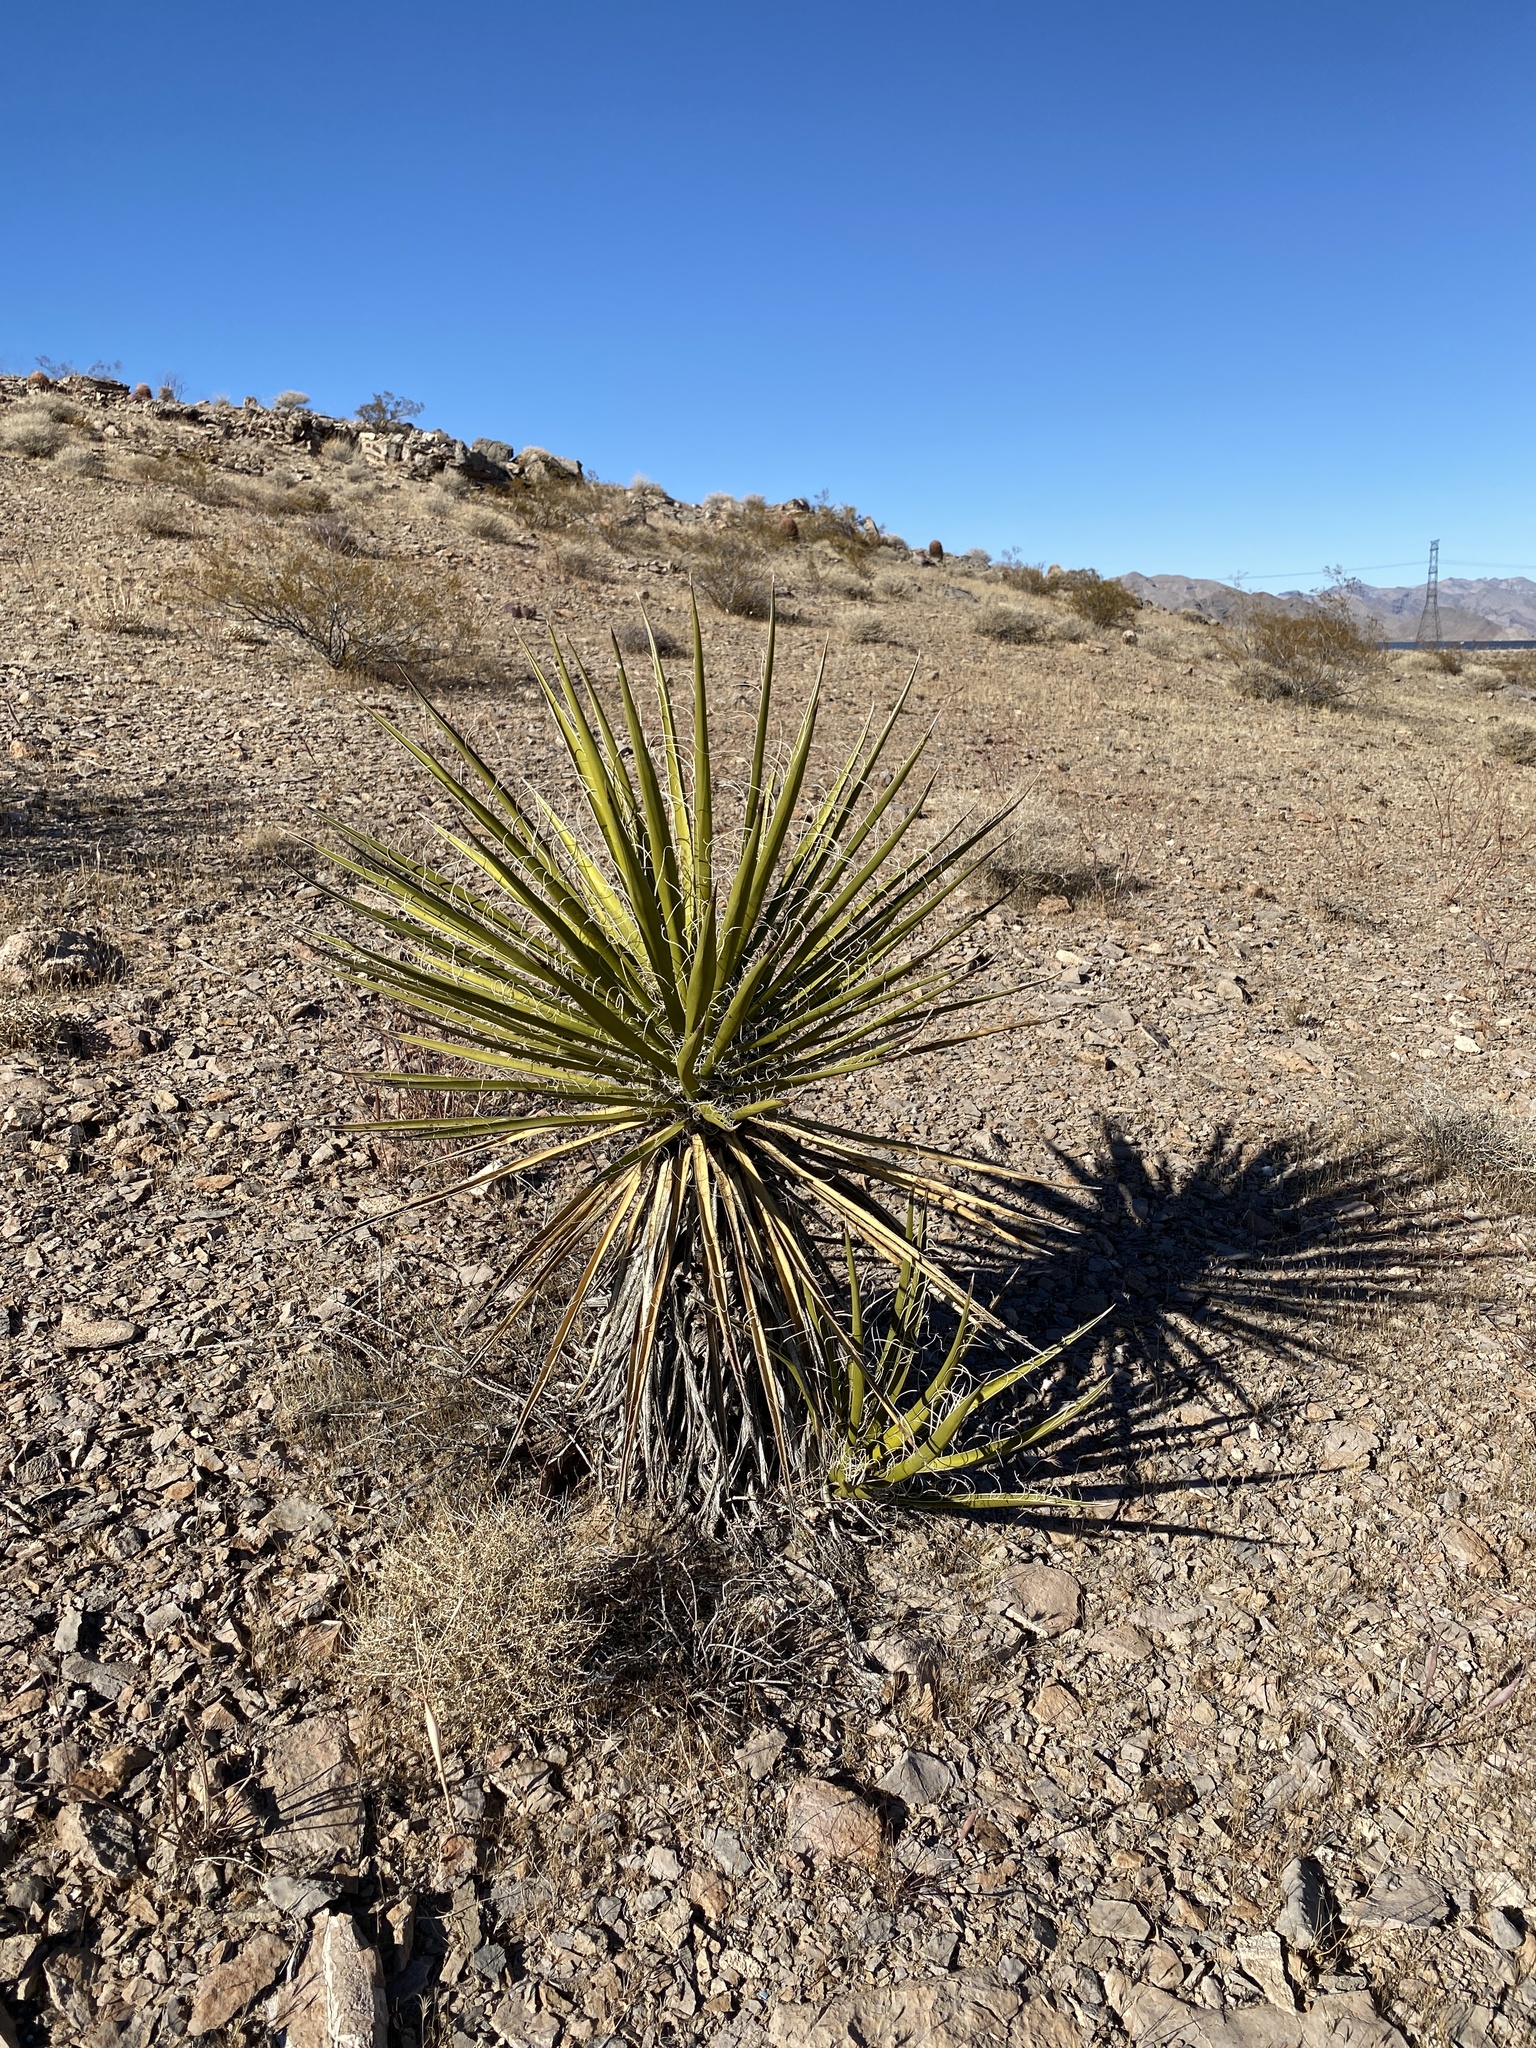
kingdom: Plantae
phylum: Tracheophyta
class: Liliopsida
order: Asparagales
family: Asparagaceae
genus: Yucca
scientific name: Yucca schidigera
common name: Mojave yucca
